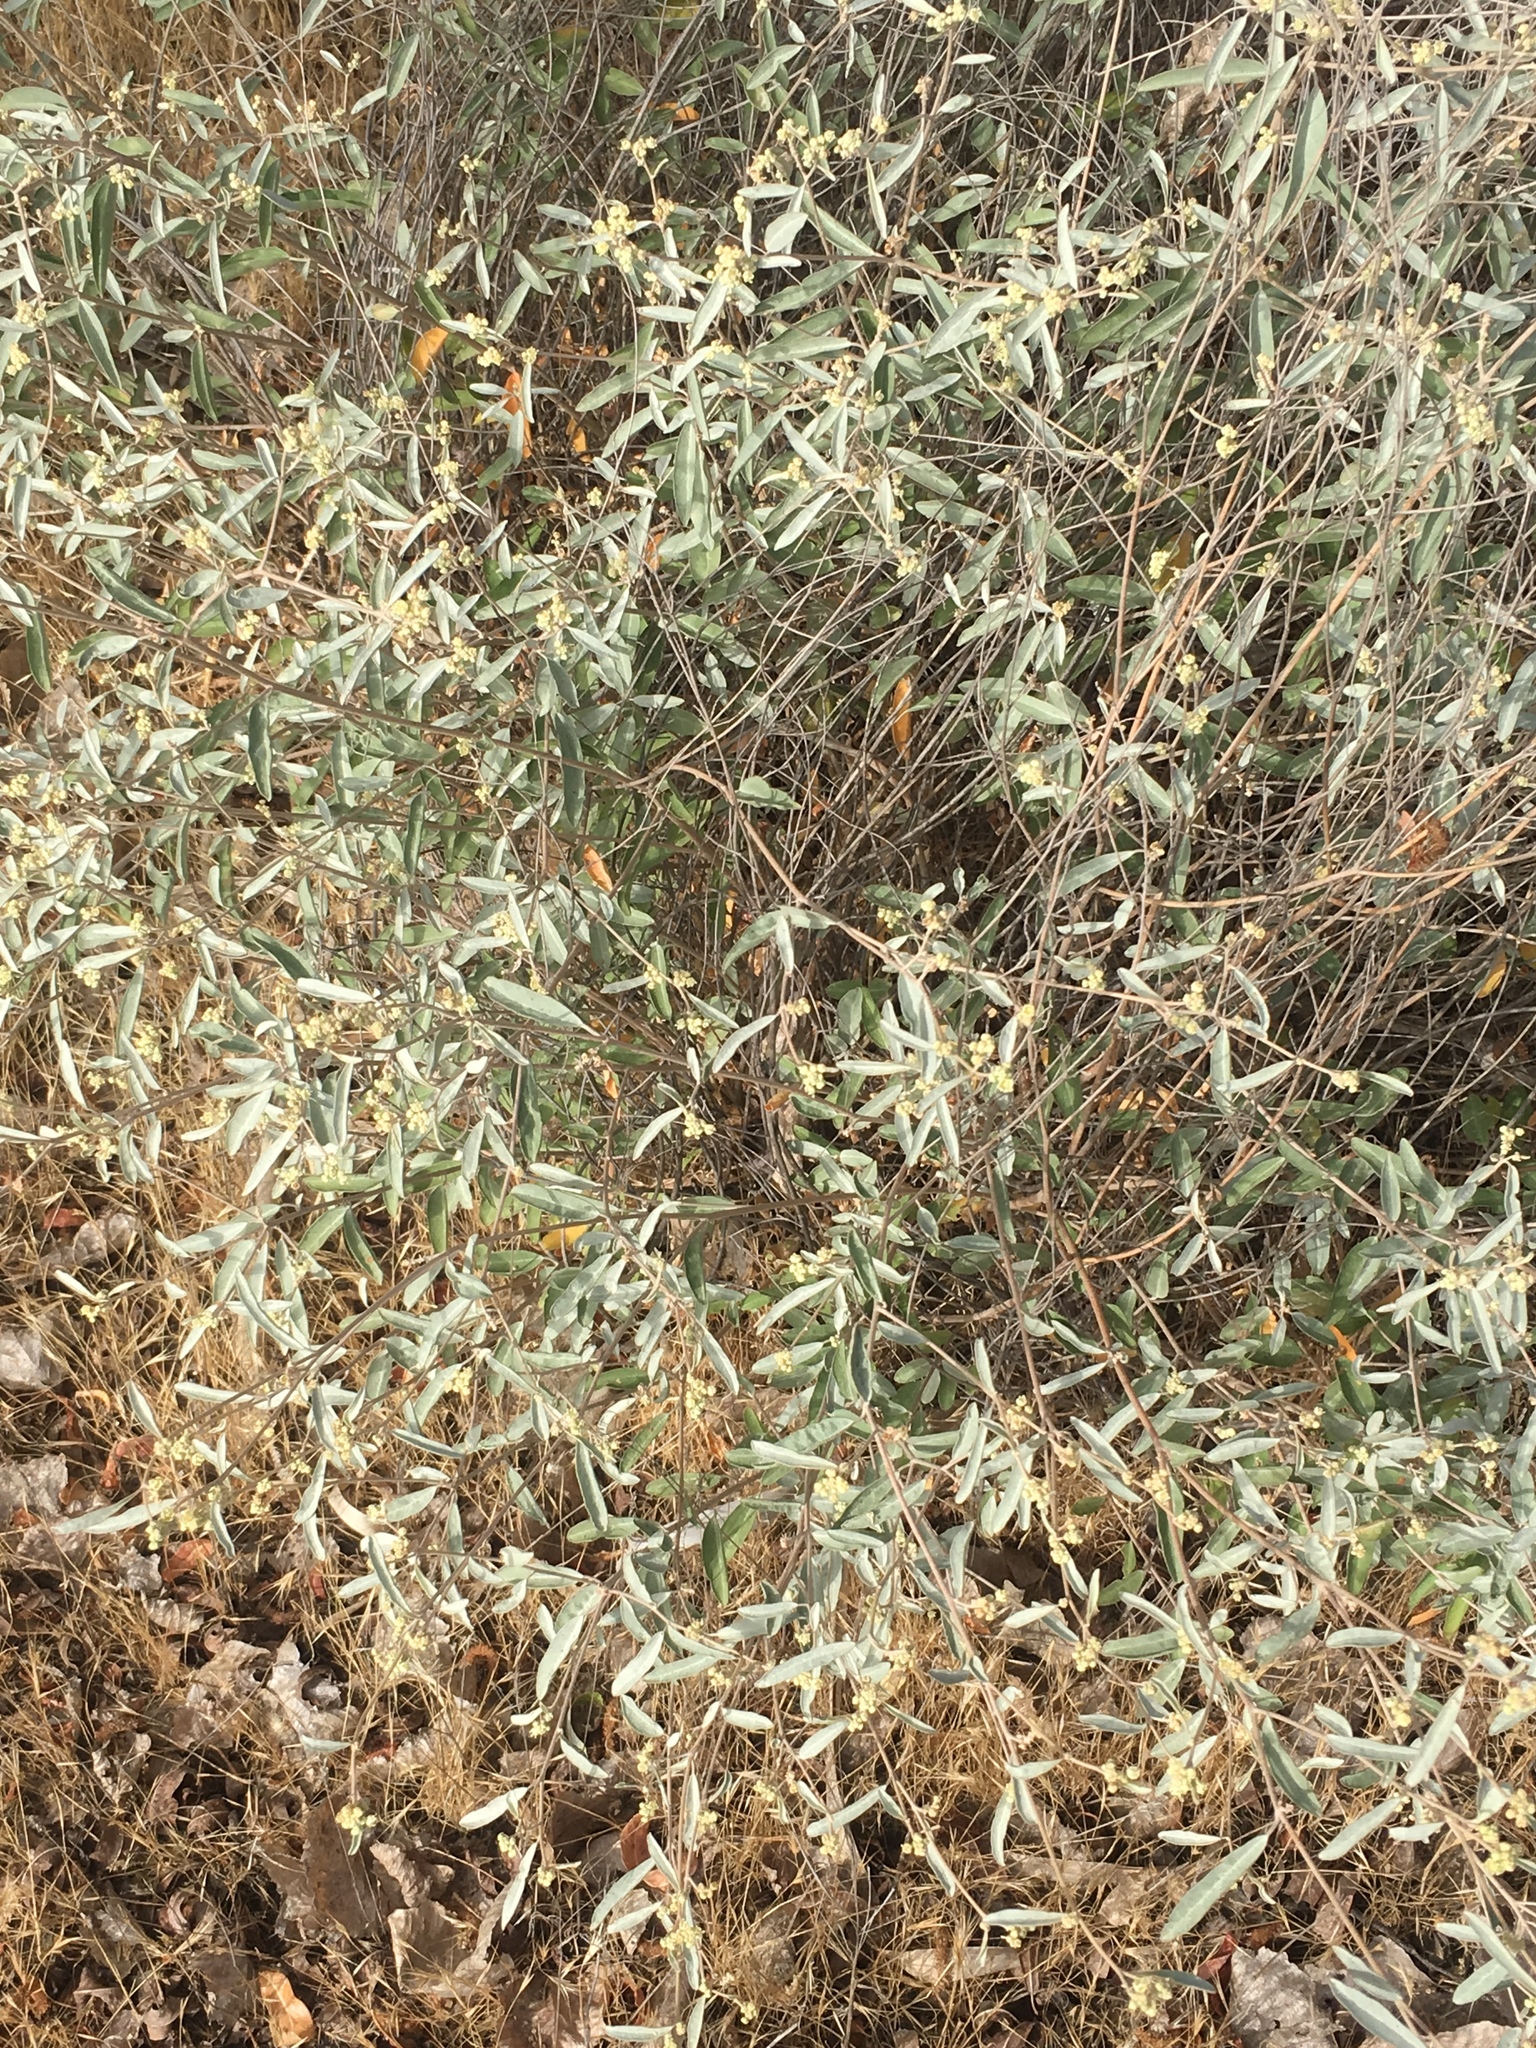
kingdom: Plantae
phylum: Tracheophyta
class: Magnoliopsida
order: Malpighiales
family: Euphorbiaceae
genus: Croton
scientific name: Croton californicus
